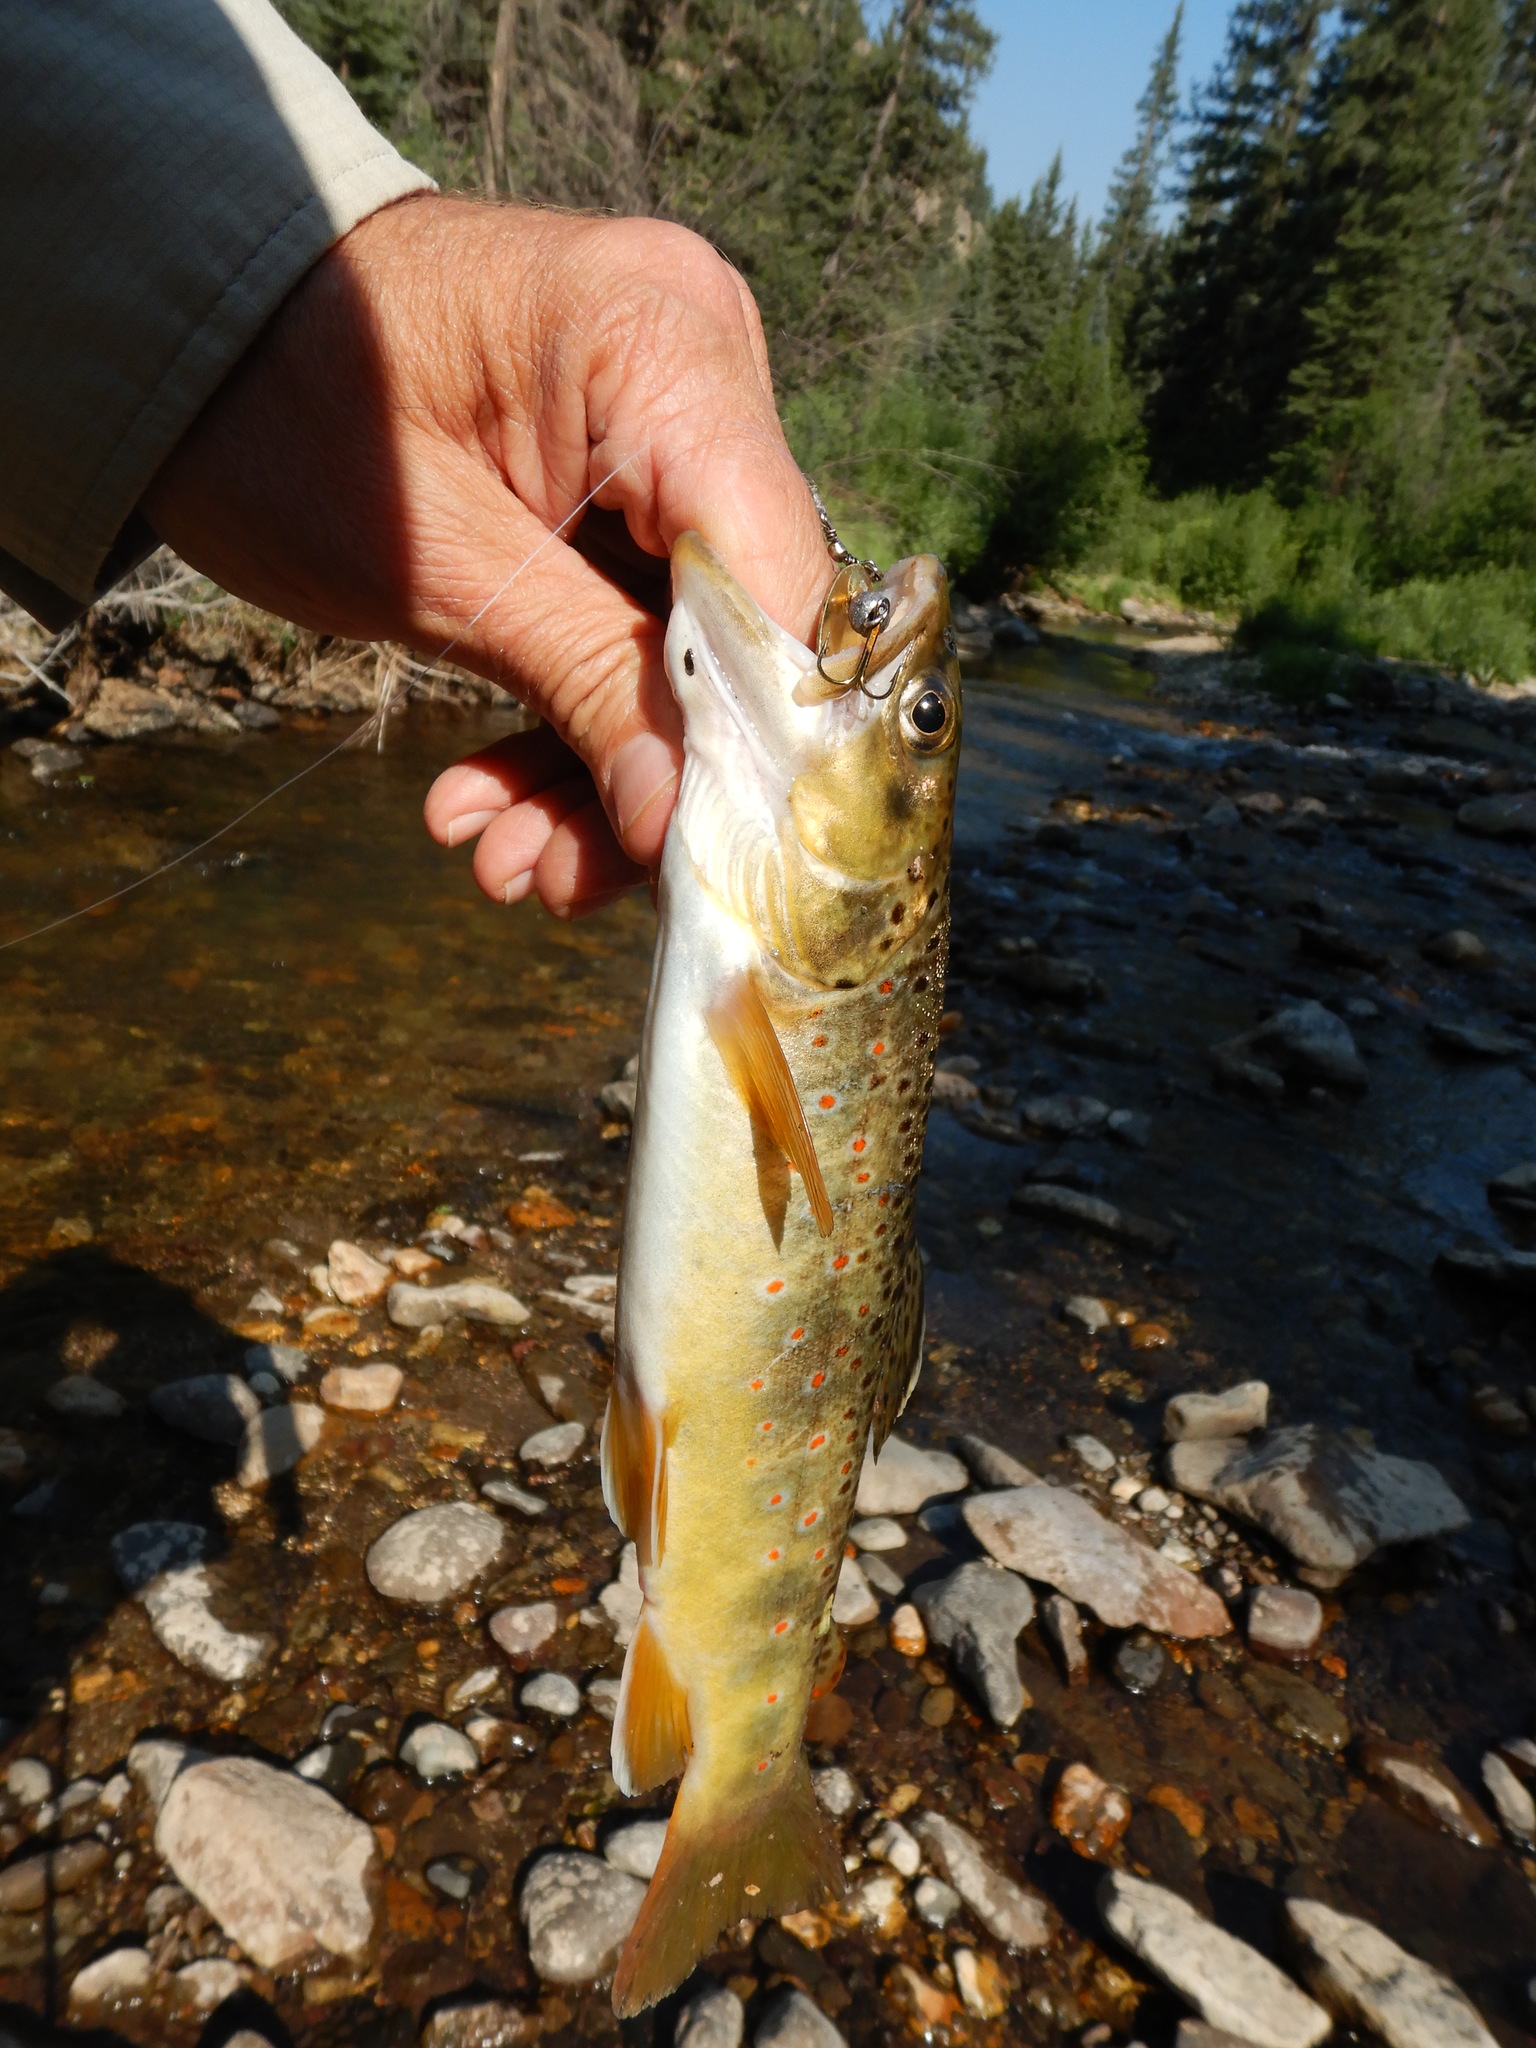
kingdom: Animalia
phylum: Chordata
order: Salmoniformes
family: Salmonidae
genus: Salmo
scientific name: Salmo trutta
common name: Brown trout
